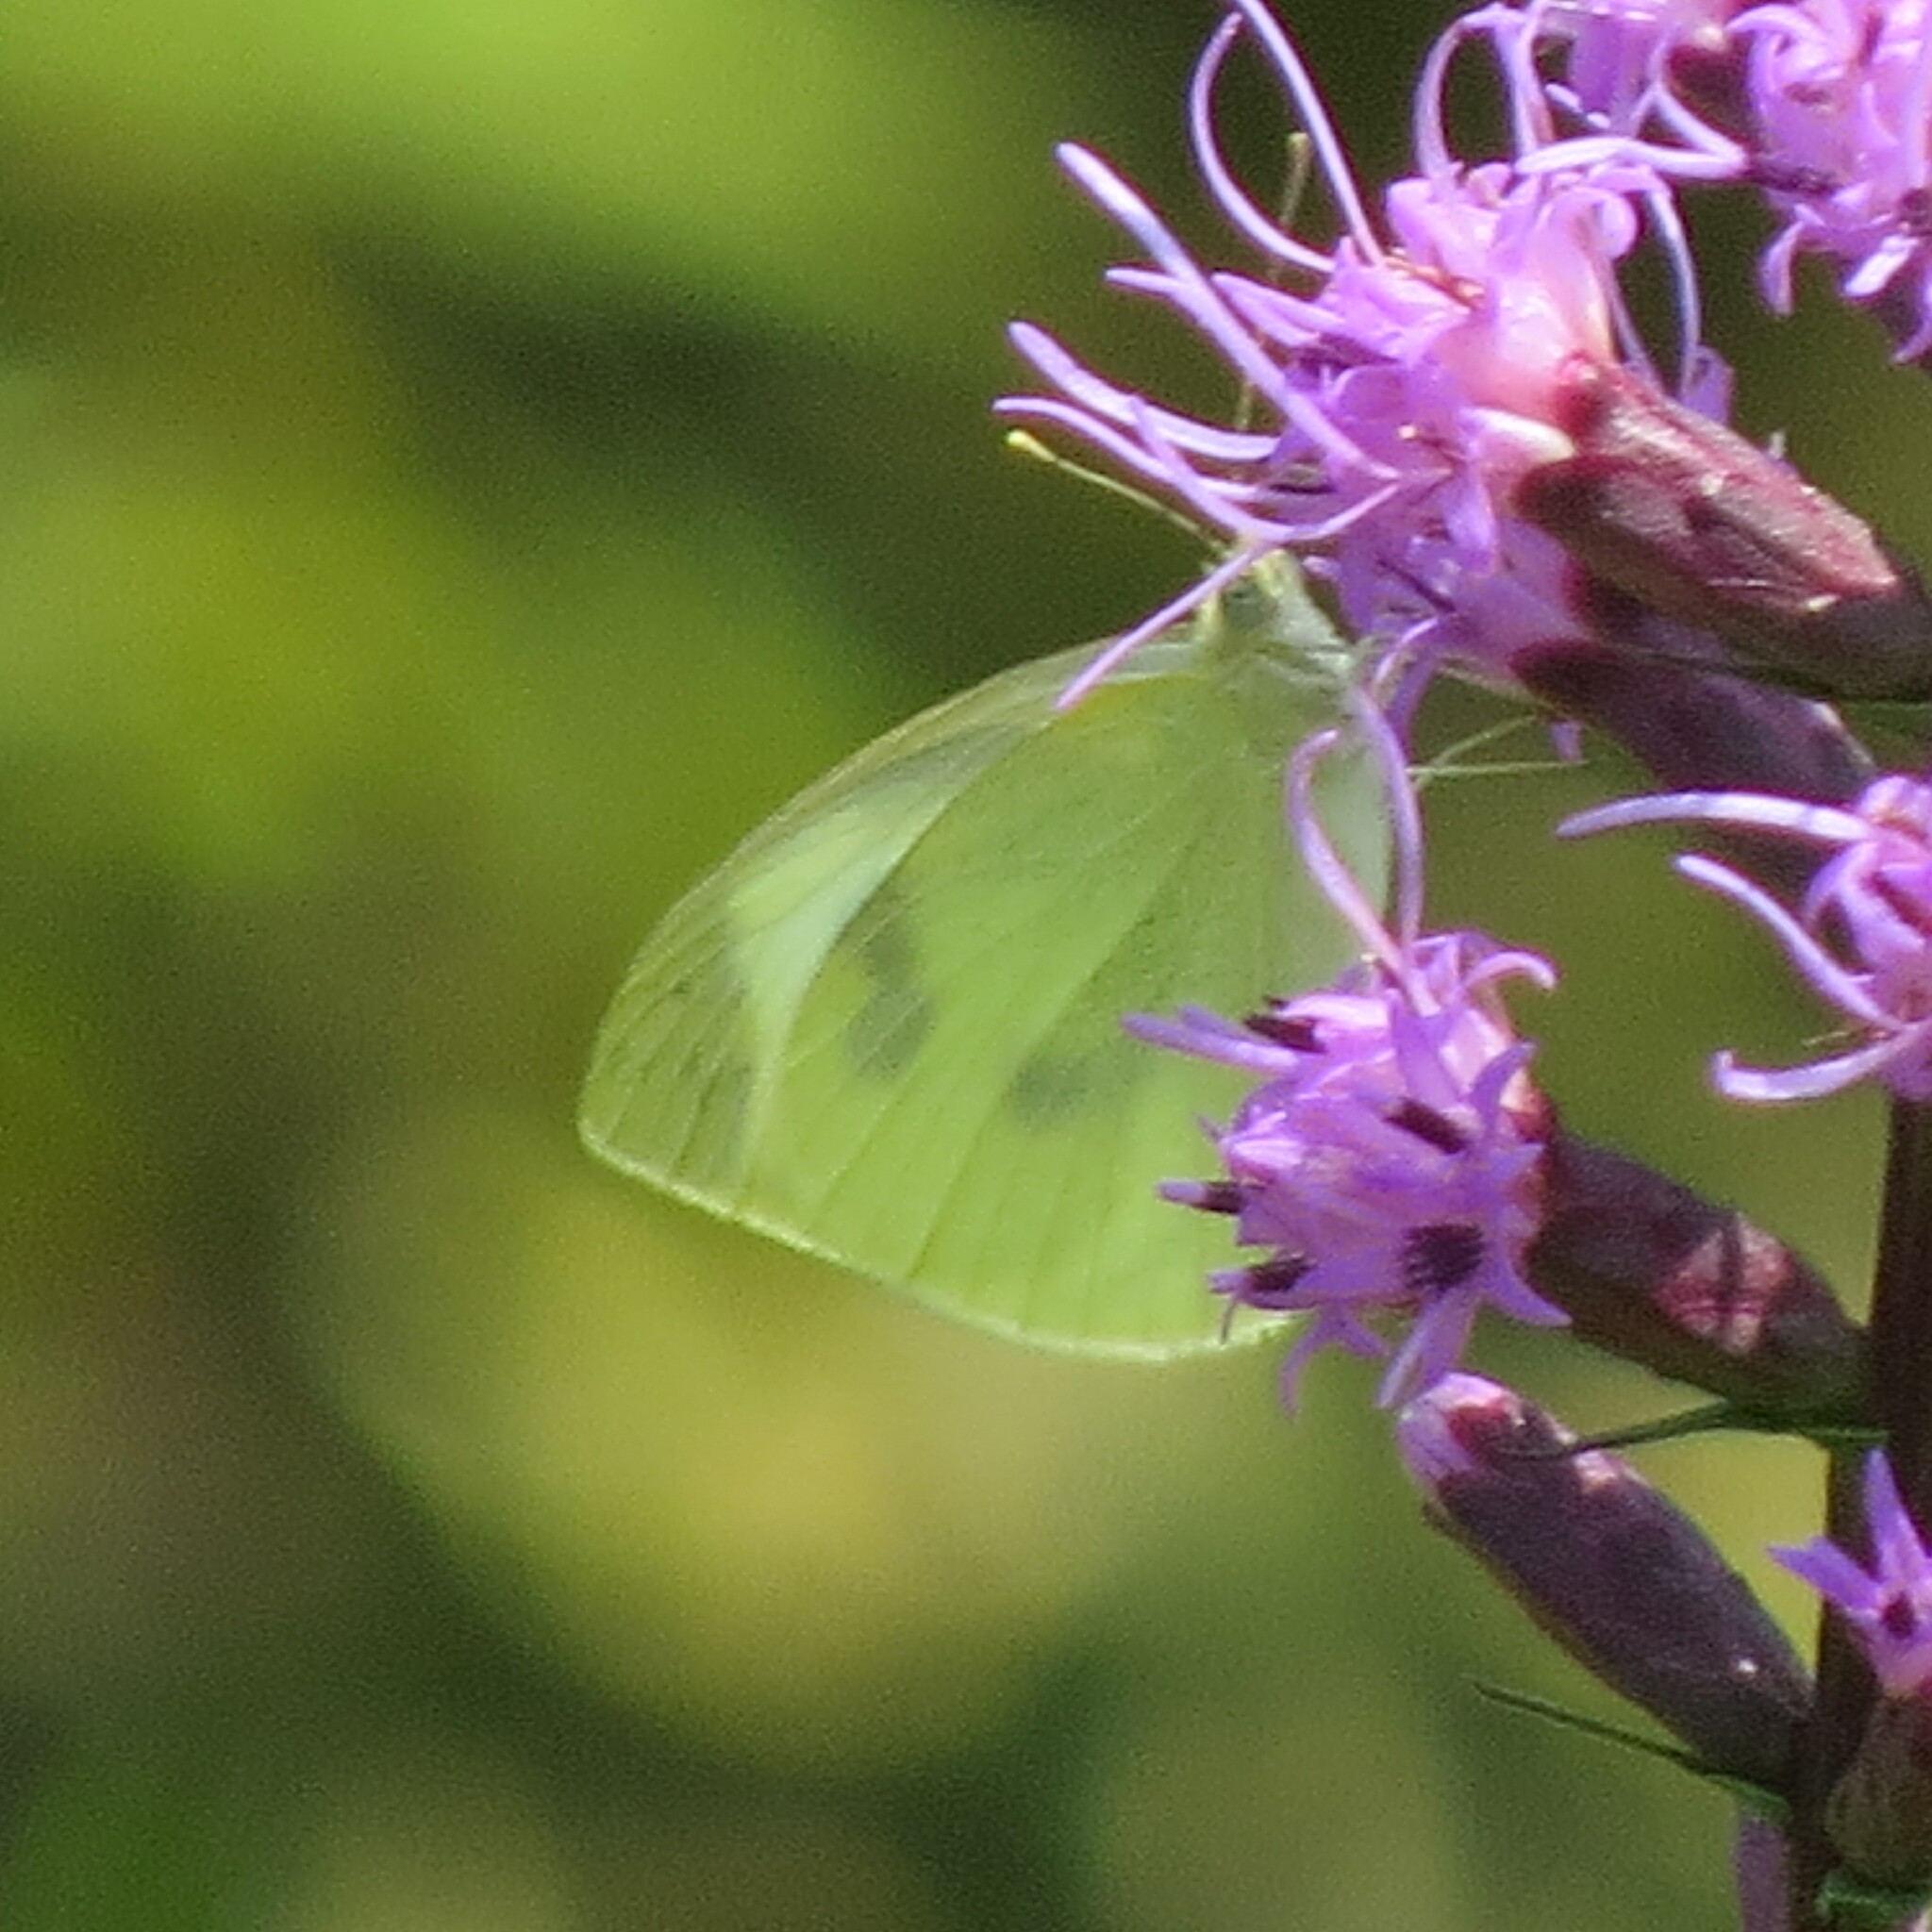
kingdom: Animalia
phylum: Arthropoda
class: Insecta
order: Lepidoptera
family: Pieridae
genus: Pieris
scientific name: Pieris rapae
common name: Small white
